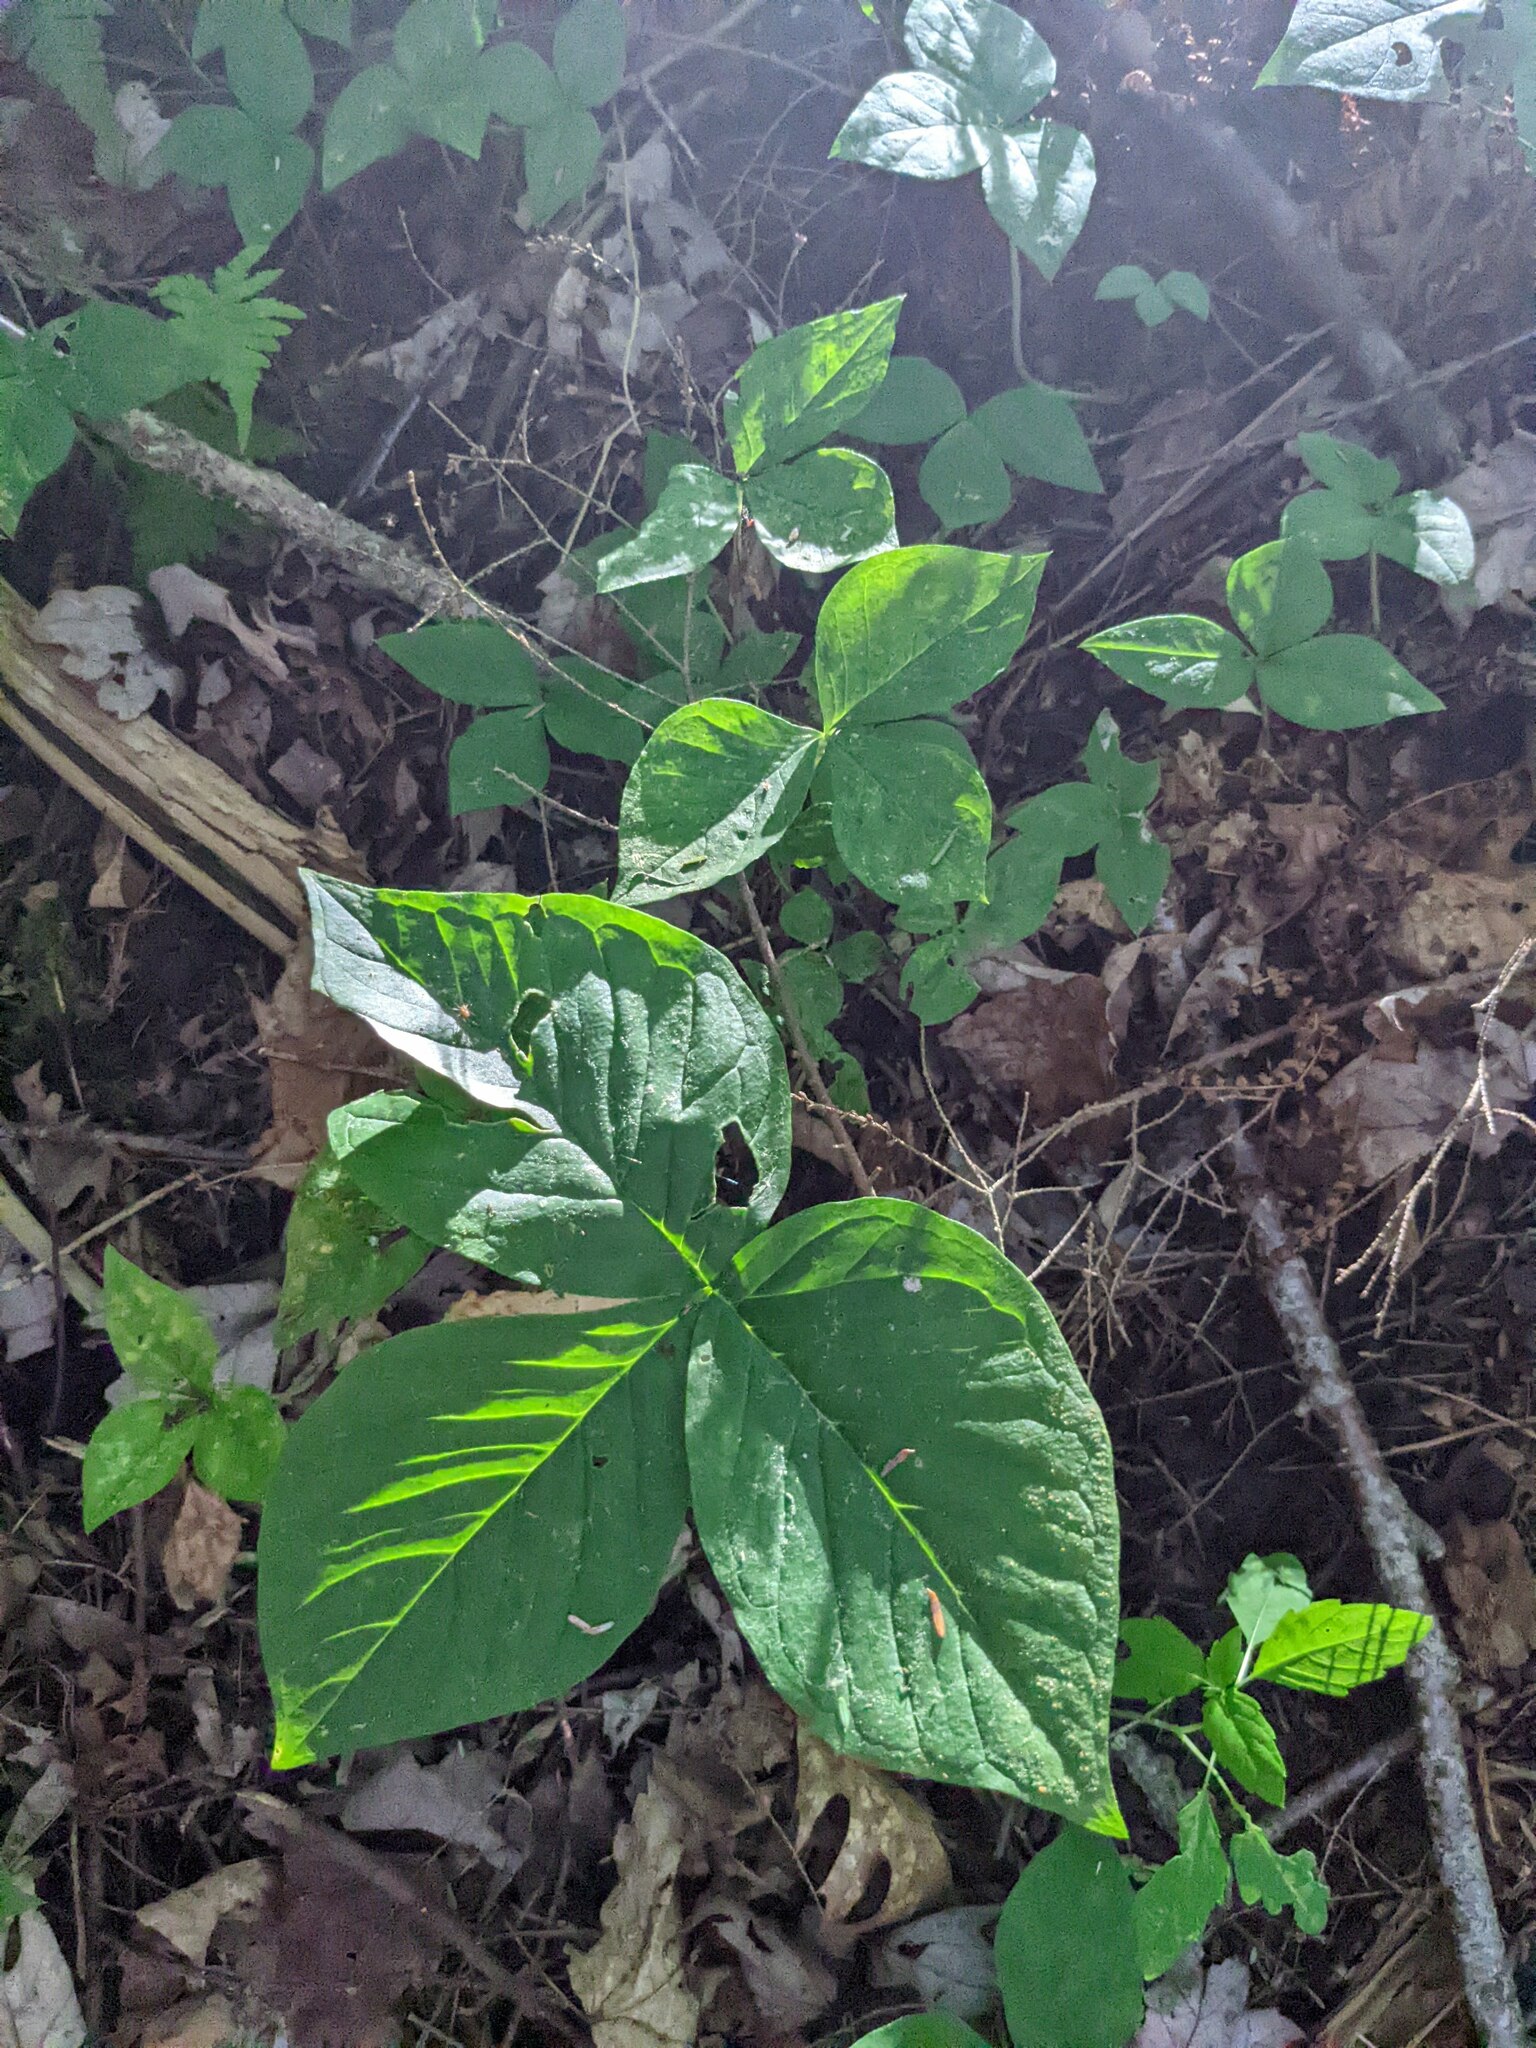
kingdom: Plantae
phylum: Tracheophyta
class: Liliopsida
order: Alismatales
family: Araceae
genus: Arisaema
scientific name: Arisaema triphyllum
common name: Jack-in-the-pulpit
